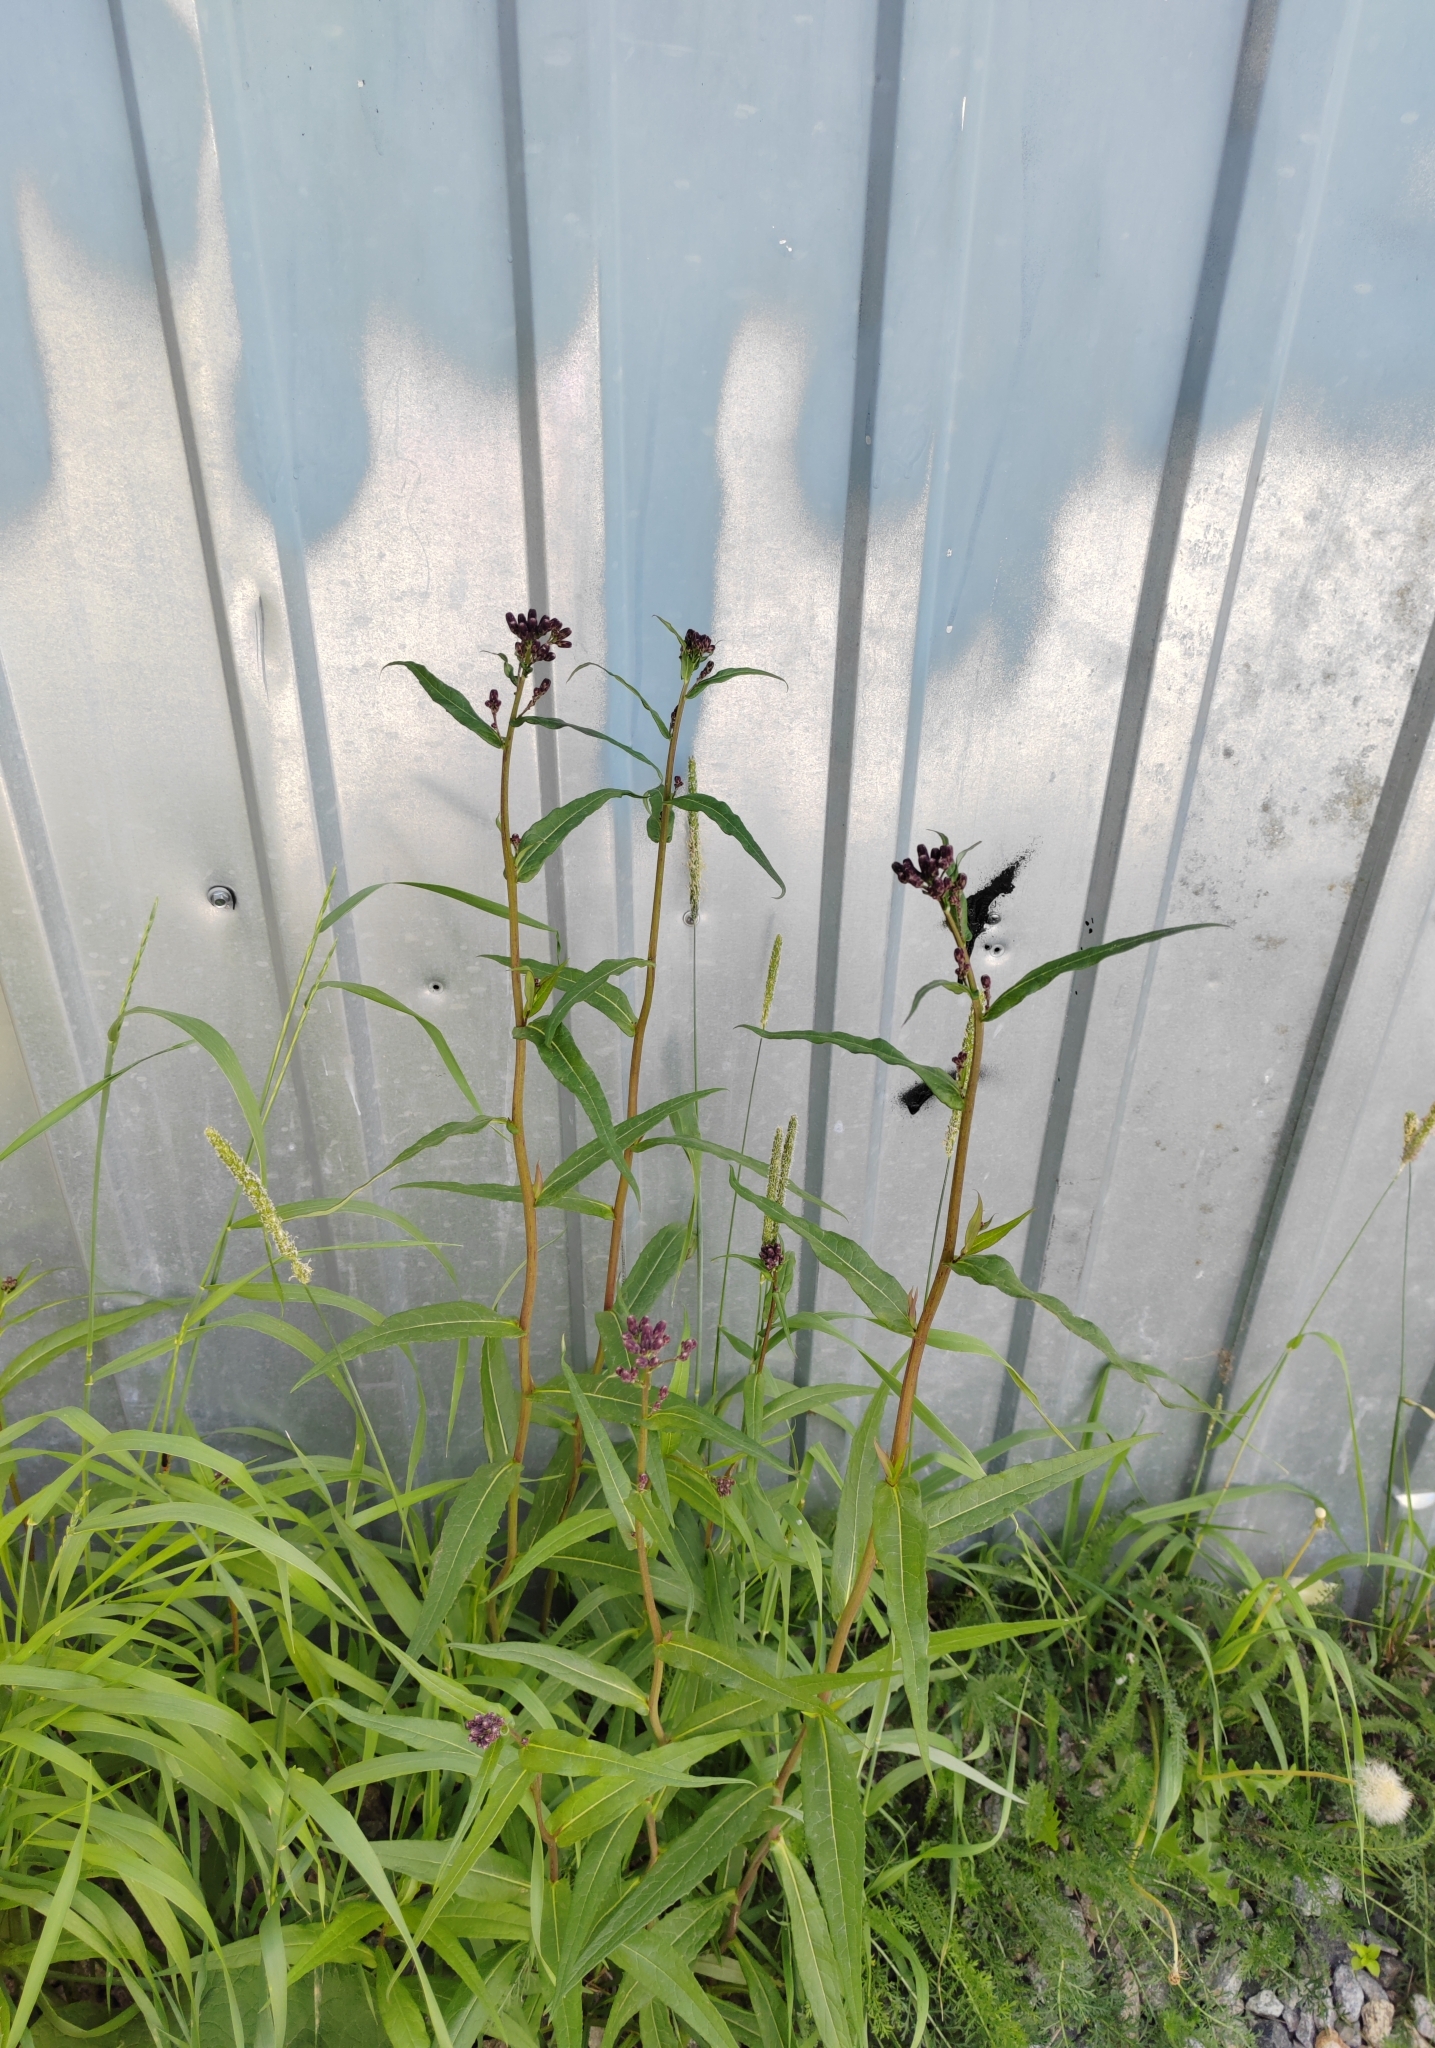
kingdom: Plantae
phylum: Tracheophyta
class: Magnoliopsida
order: Asterales
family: Asteraceae
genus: Lactuca
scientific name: Lactuca sibirica
